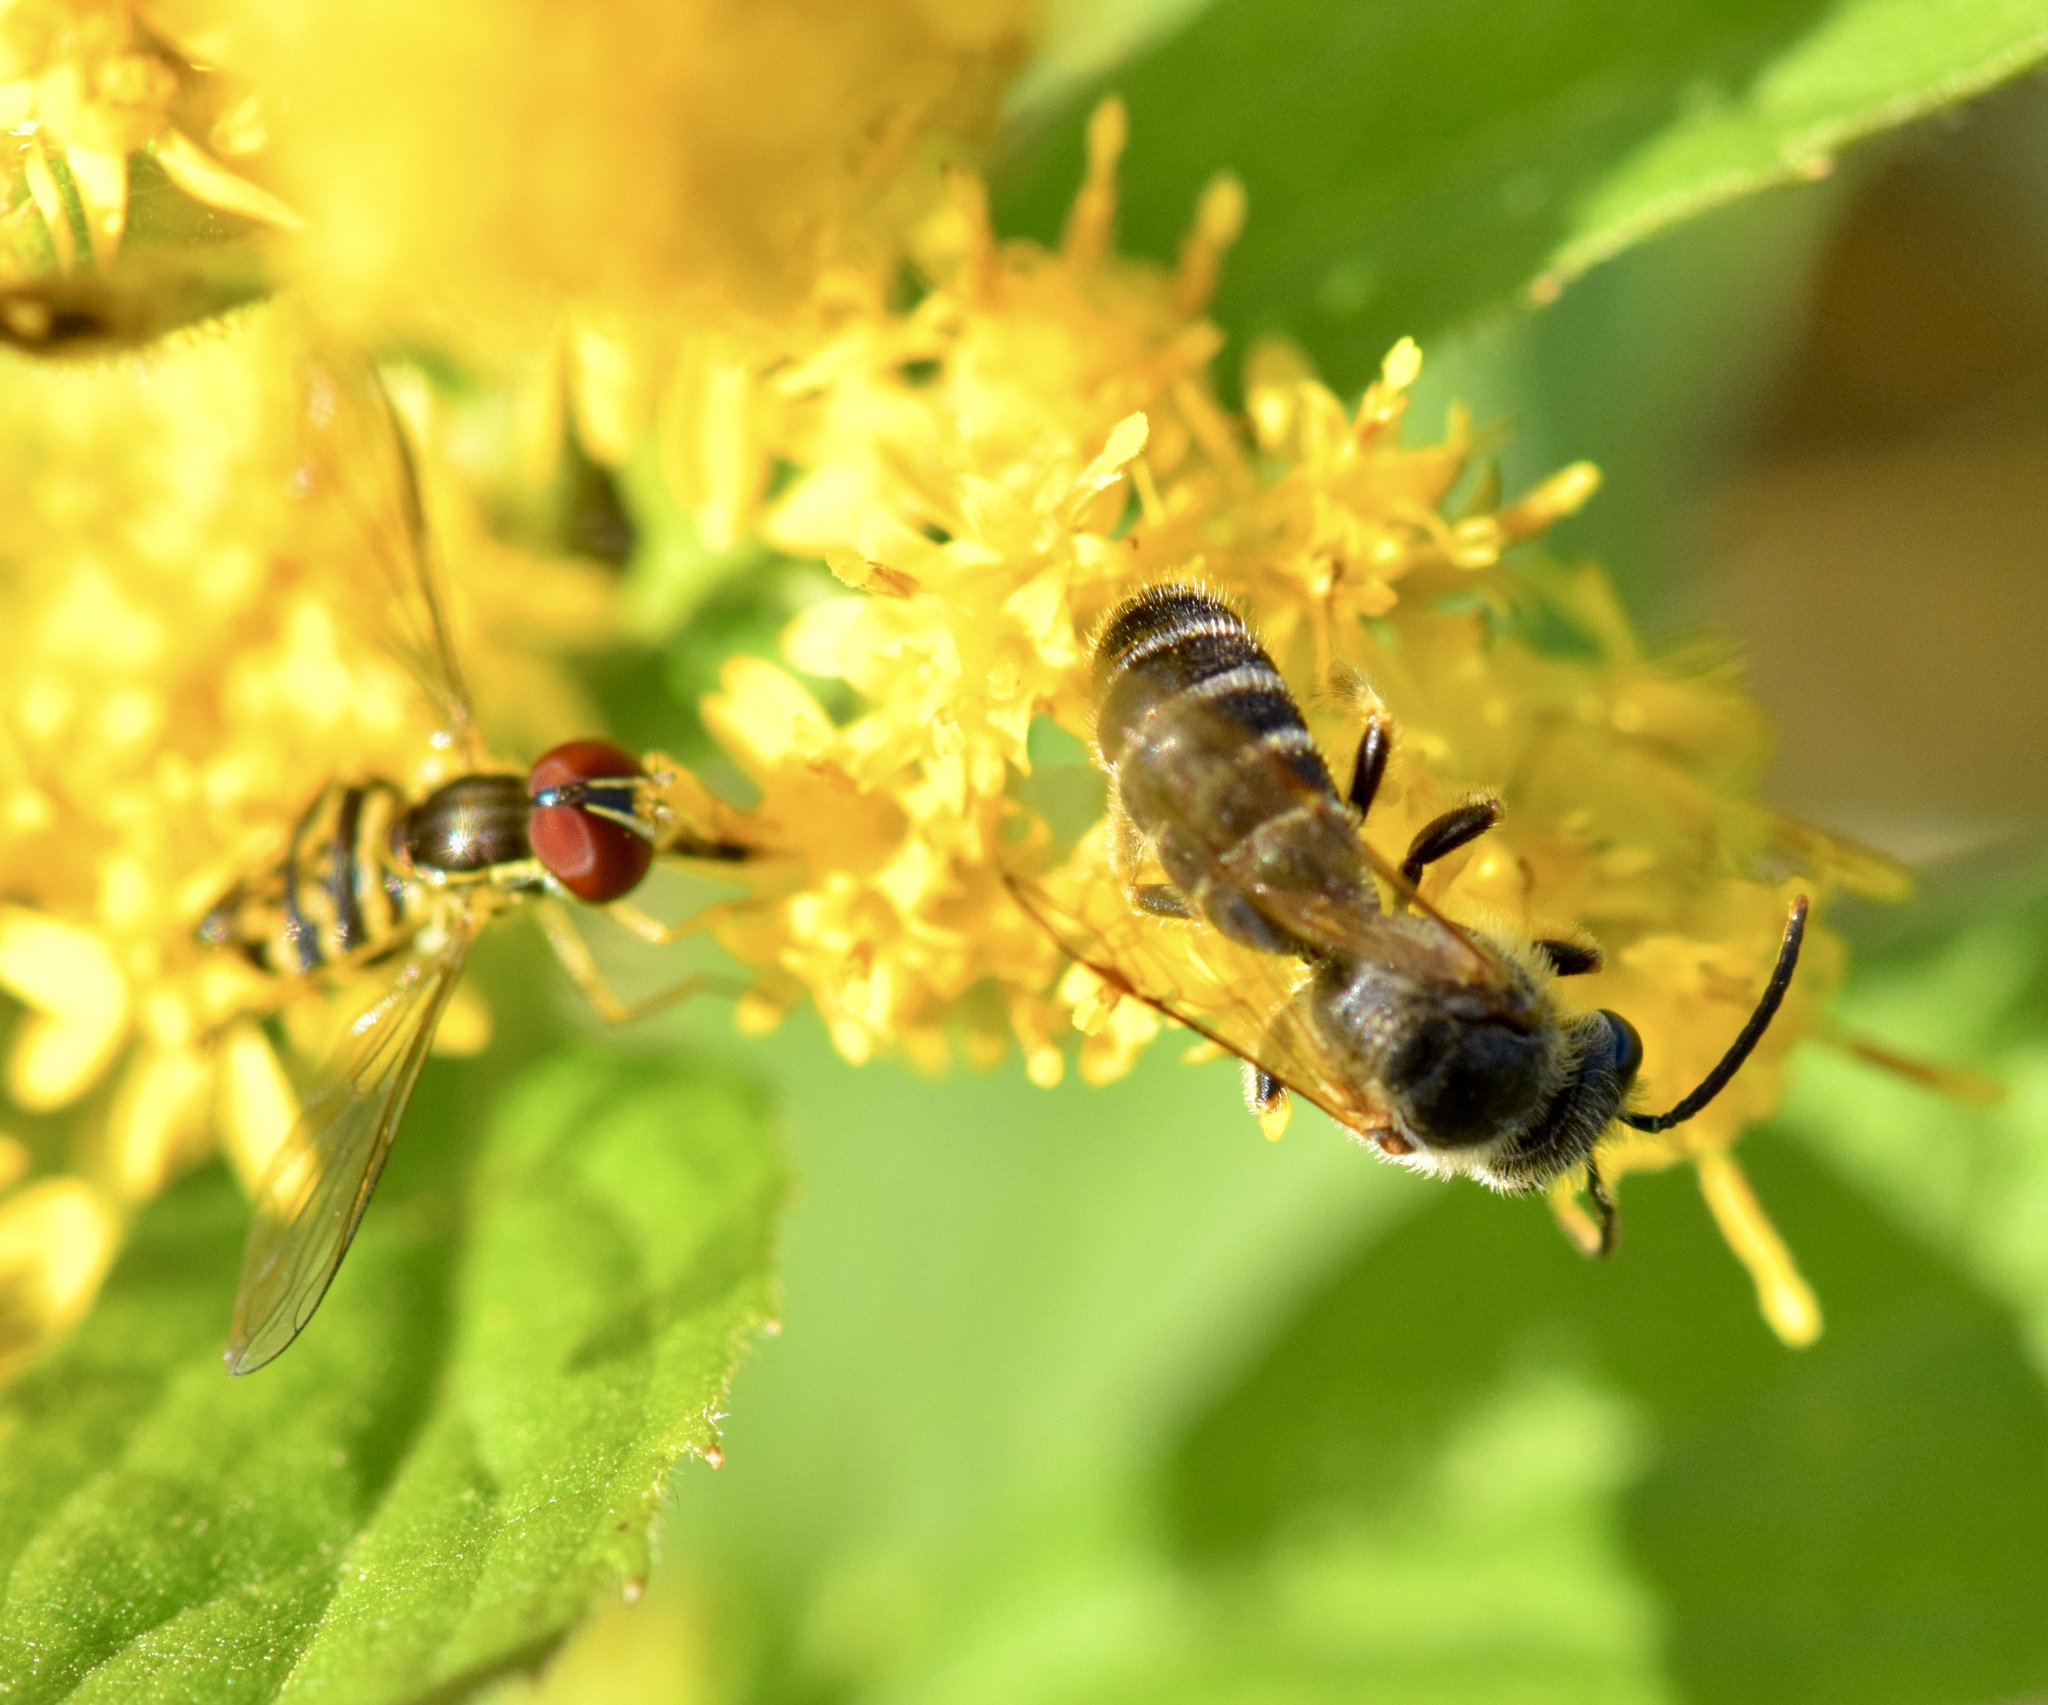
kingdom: Animalia
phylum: Arthropoda
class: Insecta
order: Hymenoptera
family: Halictidae
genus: Halictus
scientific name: Halictus ligatus
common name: Ligated furrow bee
